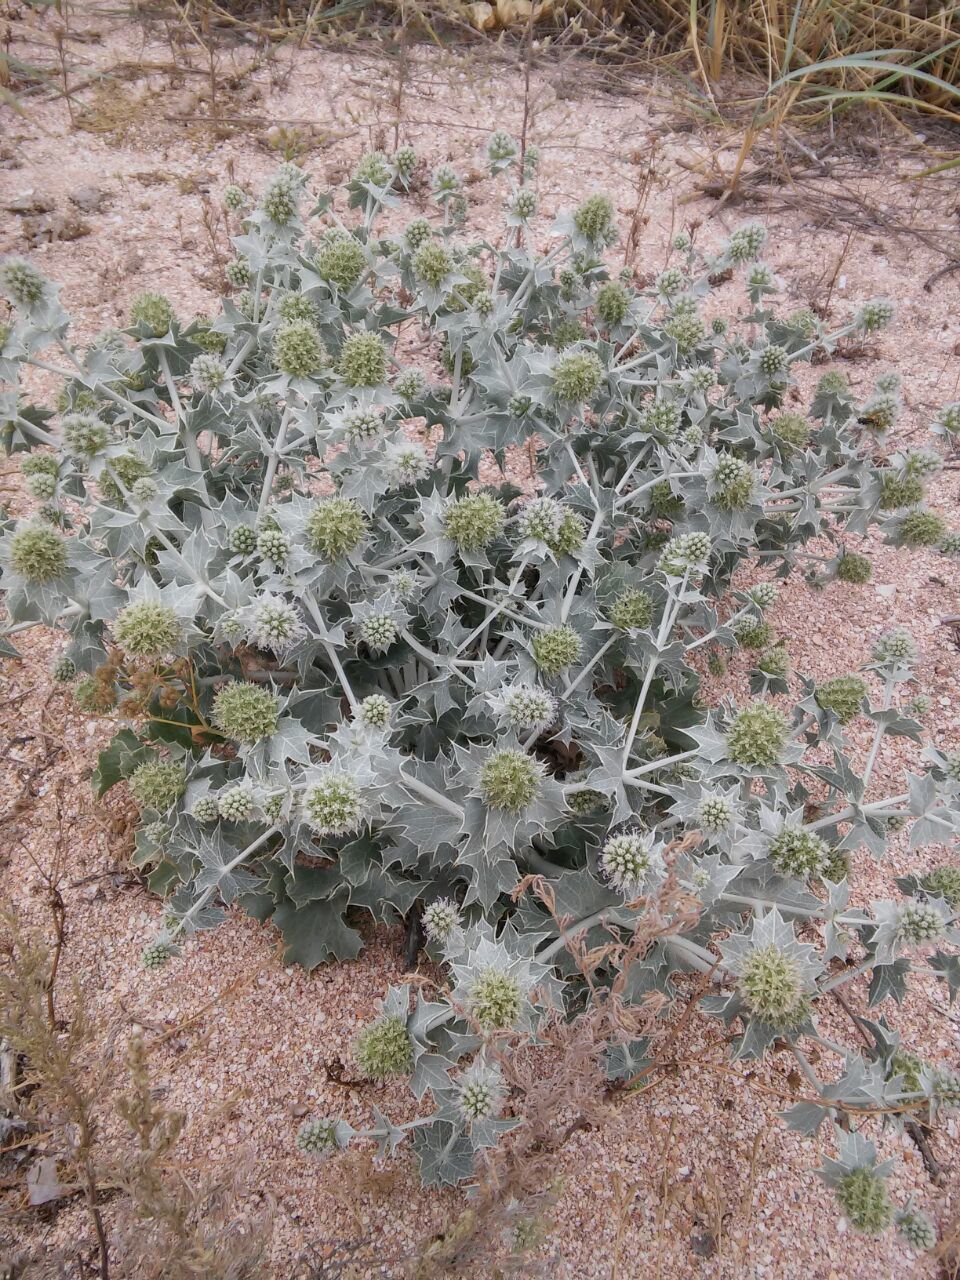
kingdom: Plantae
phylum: Tracheophyta
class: Magnoliopsida
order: Apiales
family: Apiaceae
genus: Eryngium
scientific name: Eryngium maritimum
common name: Sea-holly
